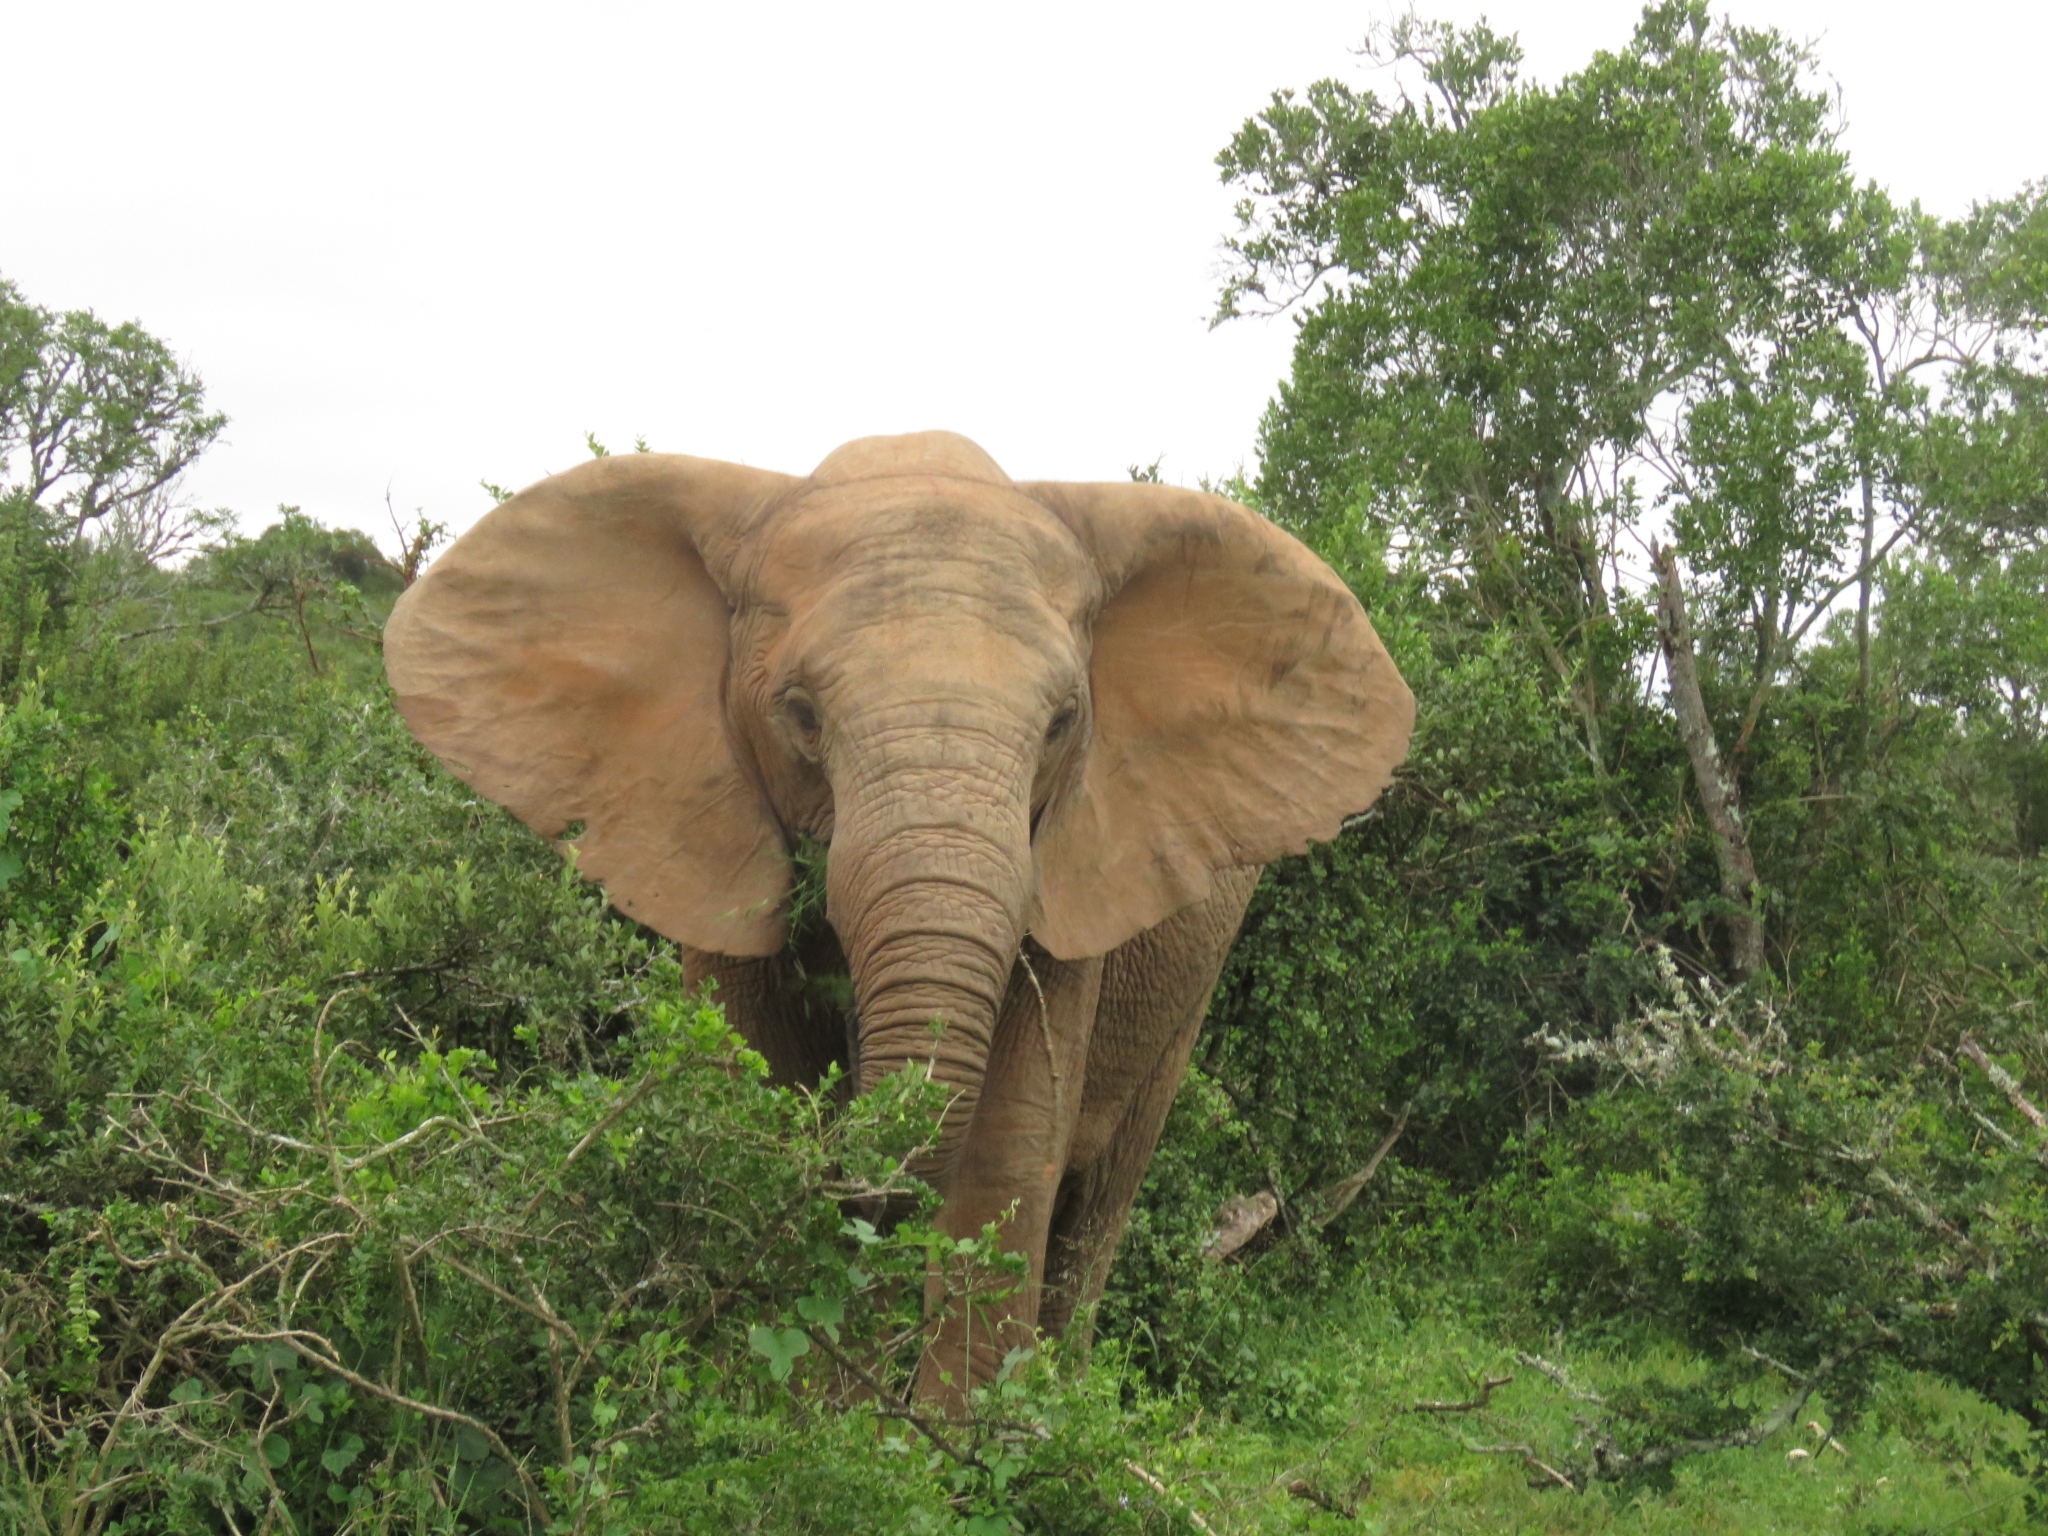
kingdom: Animalia
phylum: Chordata
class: Mammalia
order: Proboscidea
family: Elephantidae
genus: Loxodonta
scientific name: Loxodonta africana
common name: African elephant
